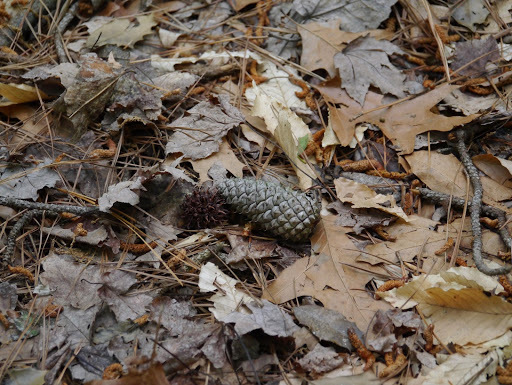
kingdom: Plantae
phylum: Tracheophyta
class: Pinopsida
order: Pinales
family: Pinaceae
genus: Pinus
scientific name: Pinus taeda
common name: Loblolly pine
